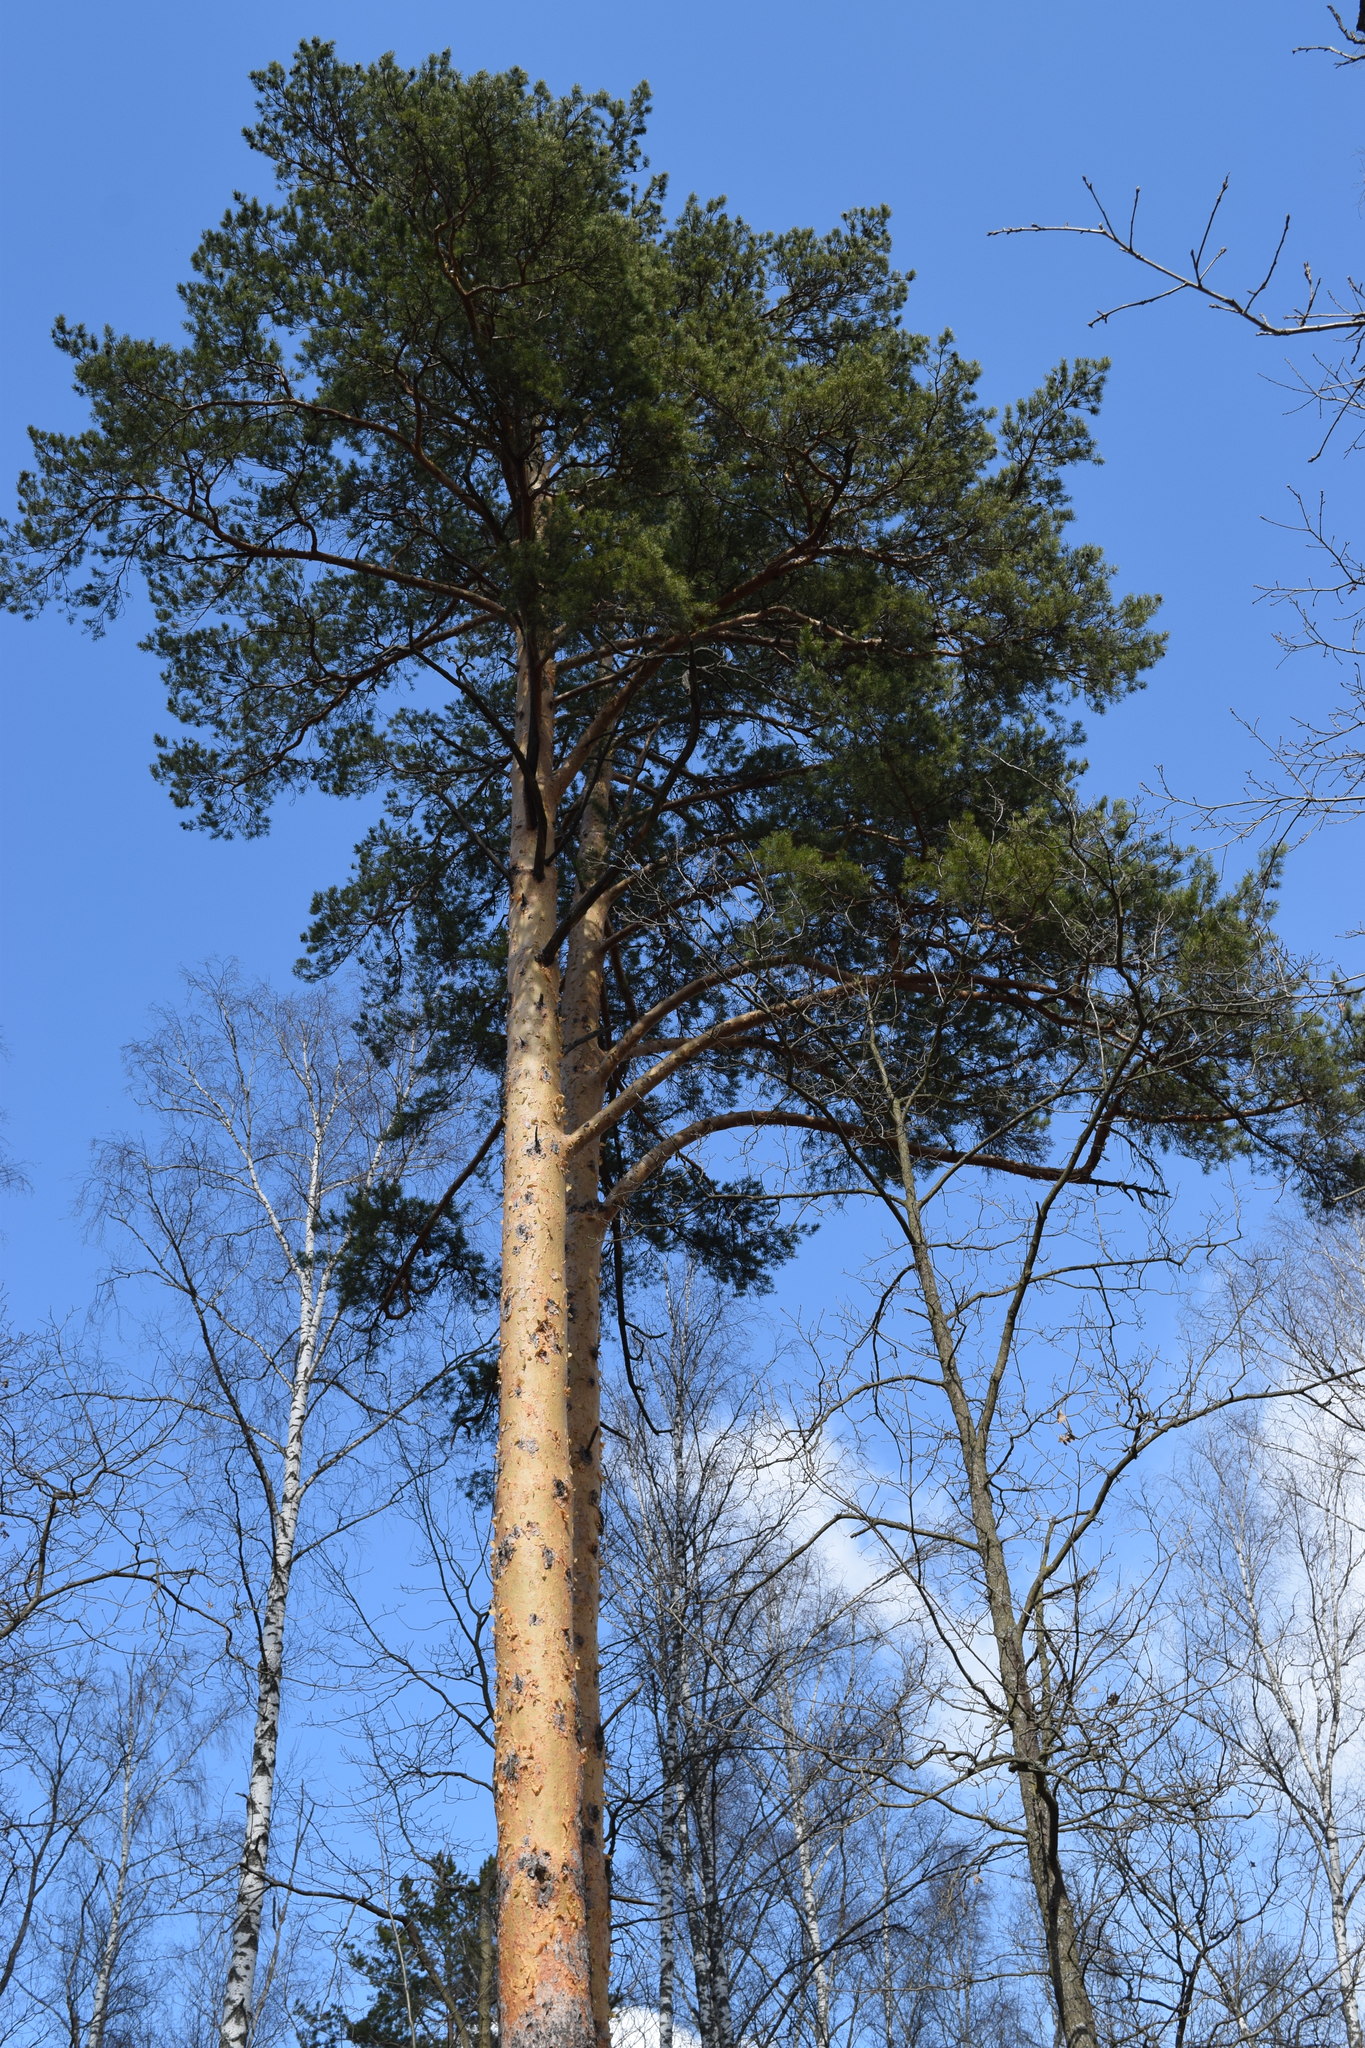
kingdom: Plantae
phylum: Tracheophyta
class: Pinopsida
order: Pinales
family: Pinaceae
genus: Pinus
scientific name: Pinus sylvestris
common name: Scots pine
